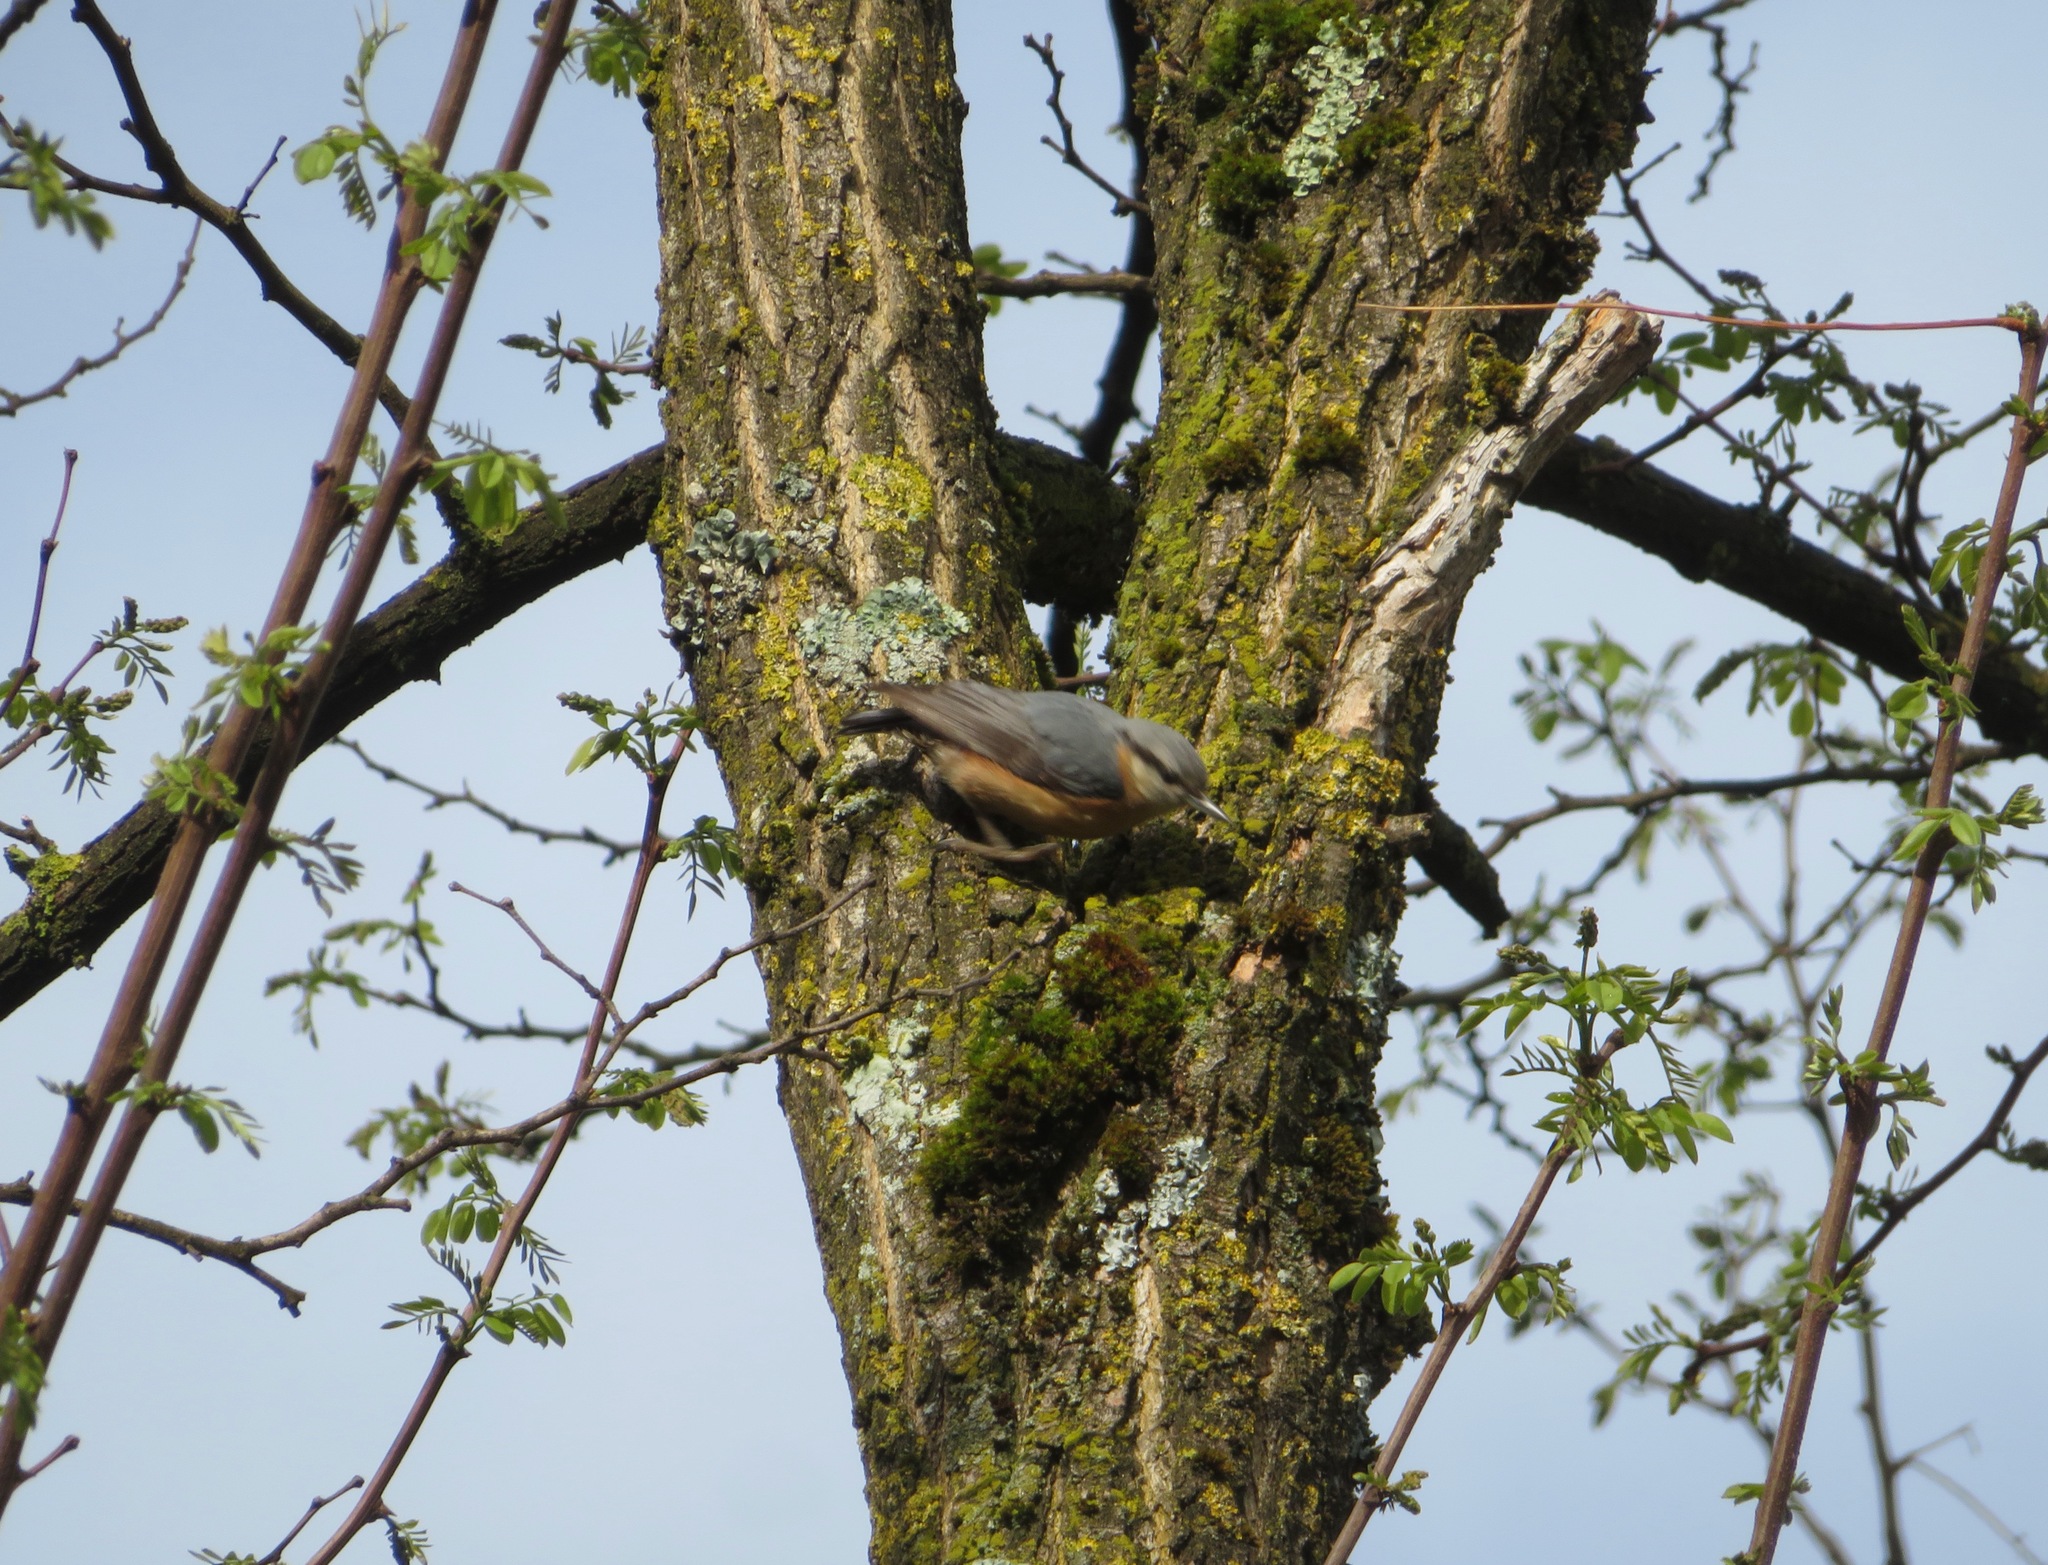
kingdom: Animalia
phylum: Chordata
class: Aves
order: Passeriformes
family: Sittidae
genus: Sitta
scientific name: Sitta europaea
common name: Eurasian nuthatch
